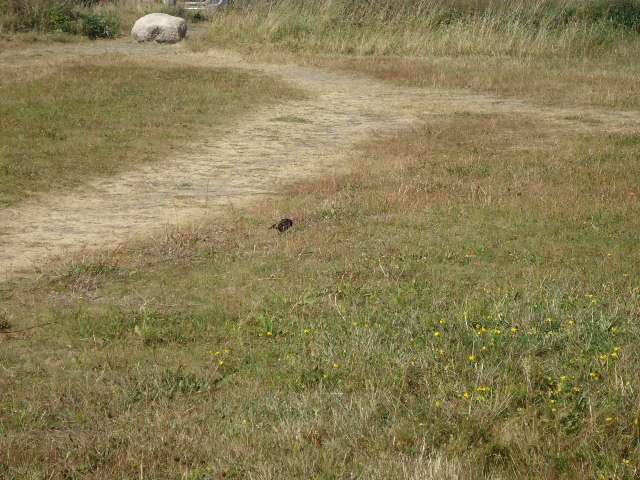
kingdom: Animalia
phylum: Chordata
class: Aves
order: Passeriformes
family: Sturnidae
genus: Sturnus
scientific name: Sturnus vulgaris
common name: Common starling
